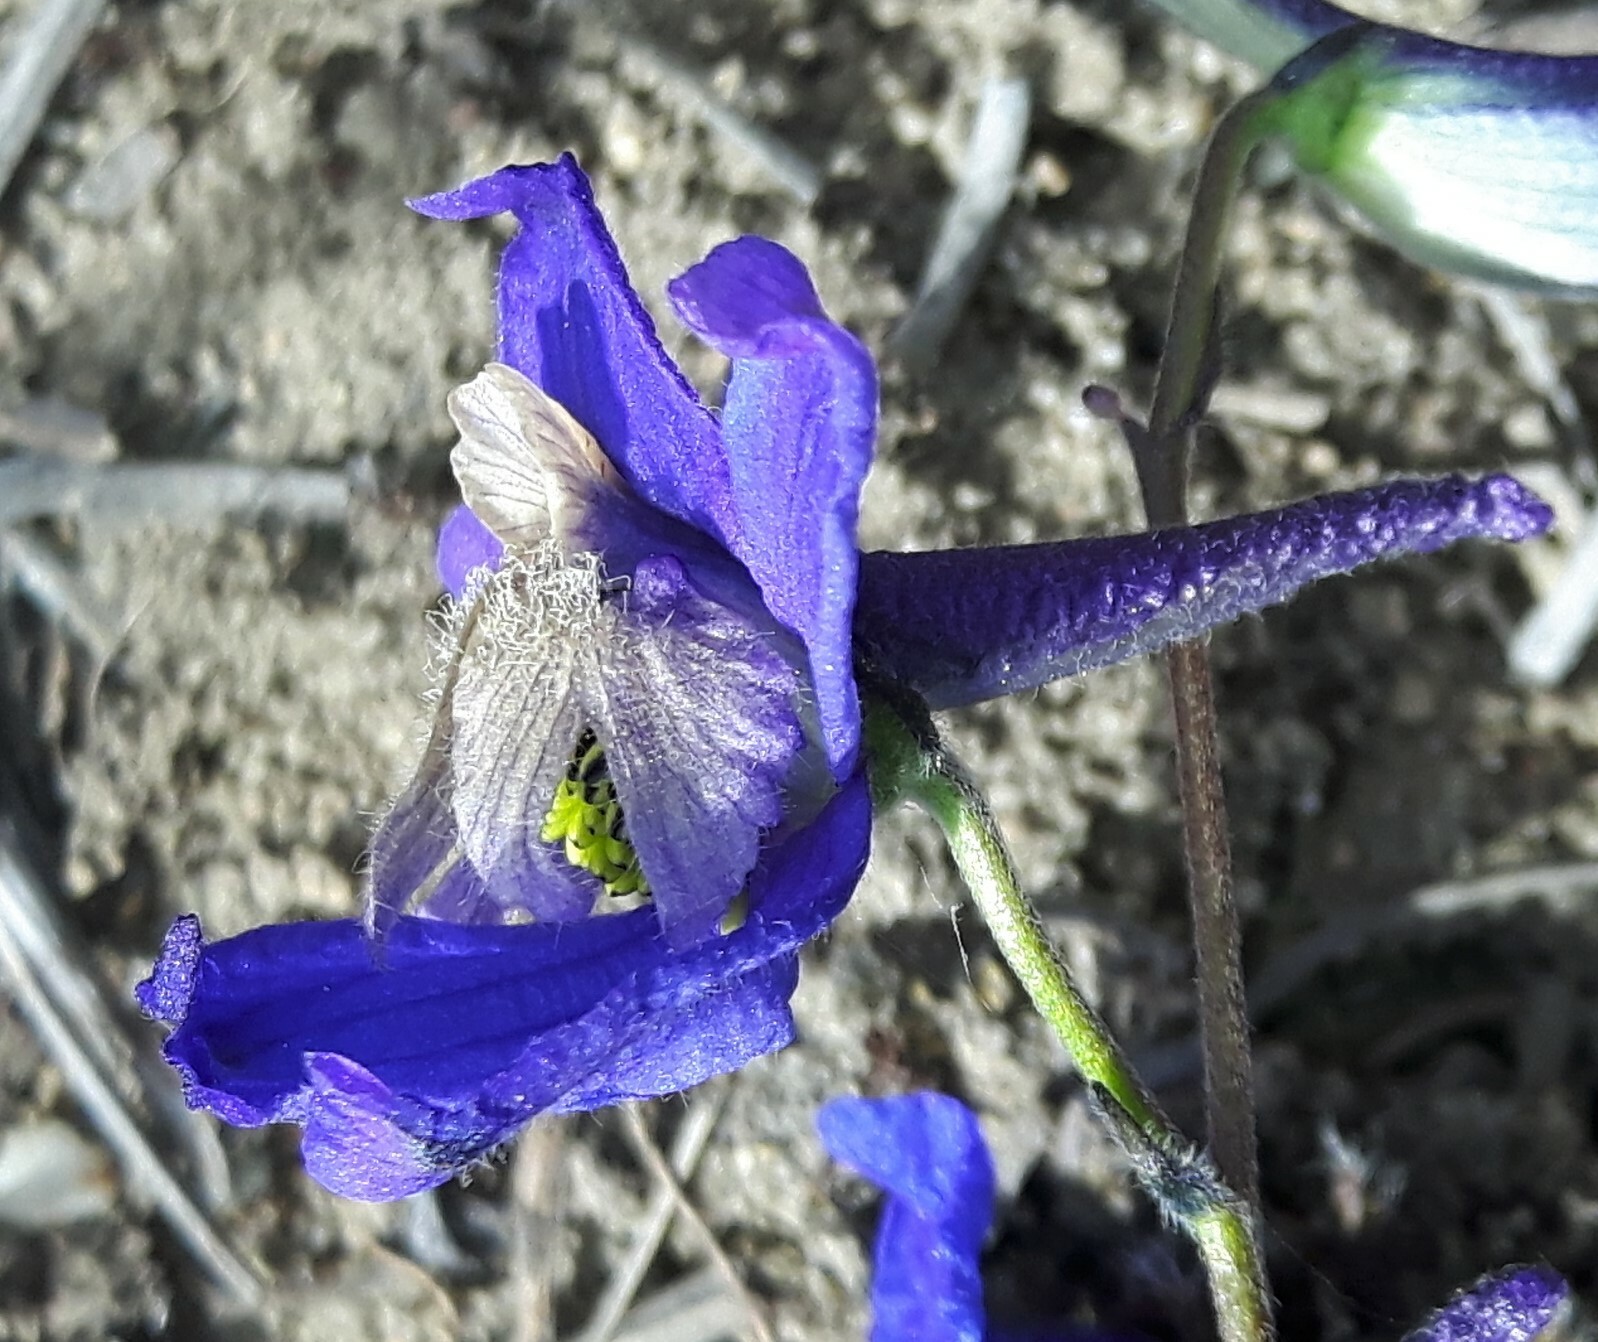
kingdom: Plantae
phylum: Tracheophyta
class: Magnoliopsida
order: Ranunculales
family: Ranunculaceae
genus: Delphinium
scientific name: Delphinium sutherlandii
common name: Sutherland's larkspur
